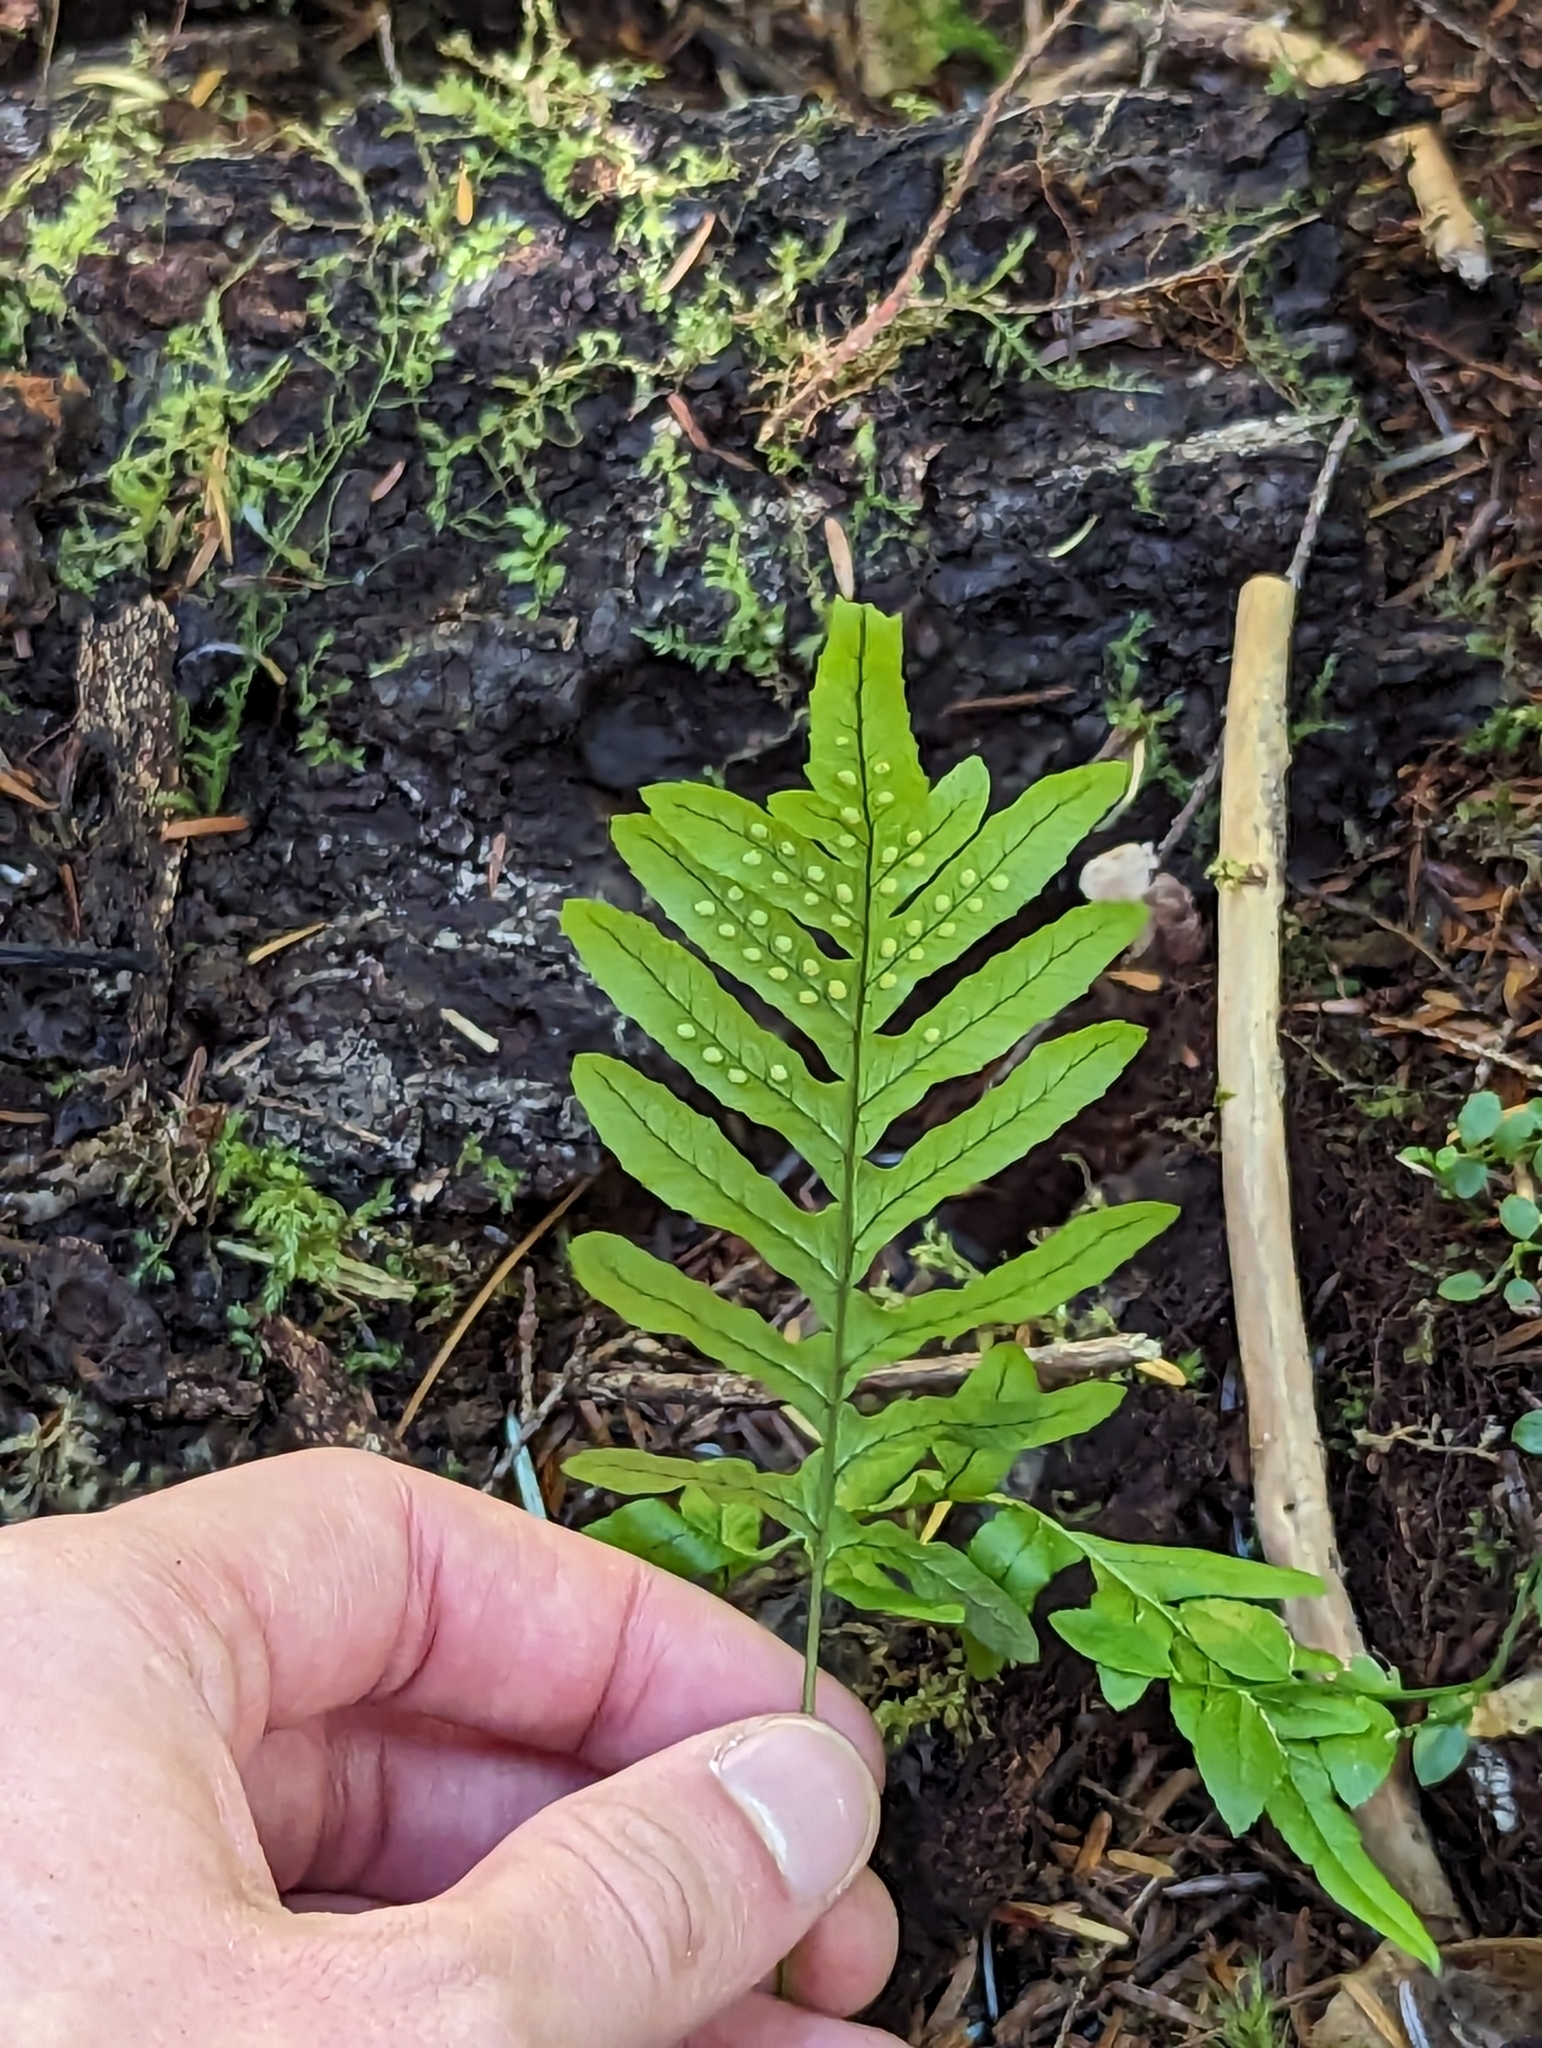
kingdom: Plantae
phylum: Tracheophyta
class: Polypodiopsida
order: Polypodiales
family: Polypodiaceae
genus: Polypodium
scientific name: Polypodium glycyrrhiza
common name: Licorice fern
